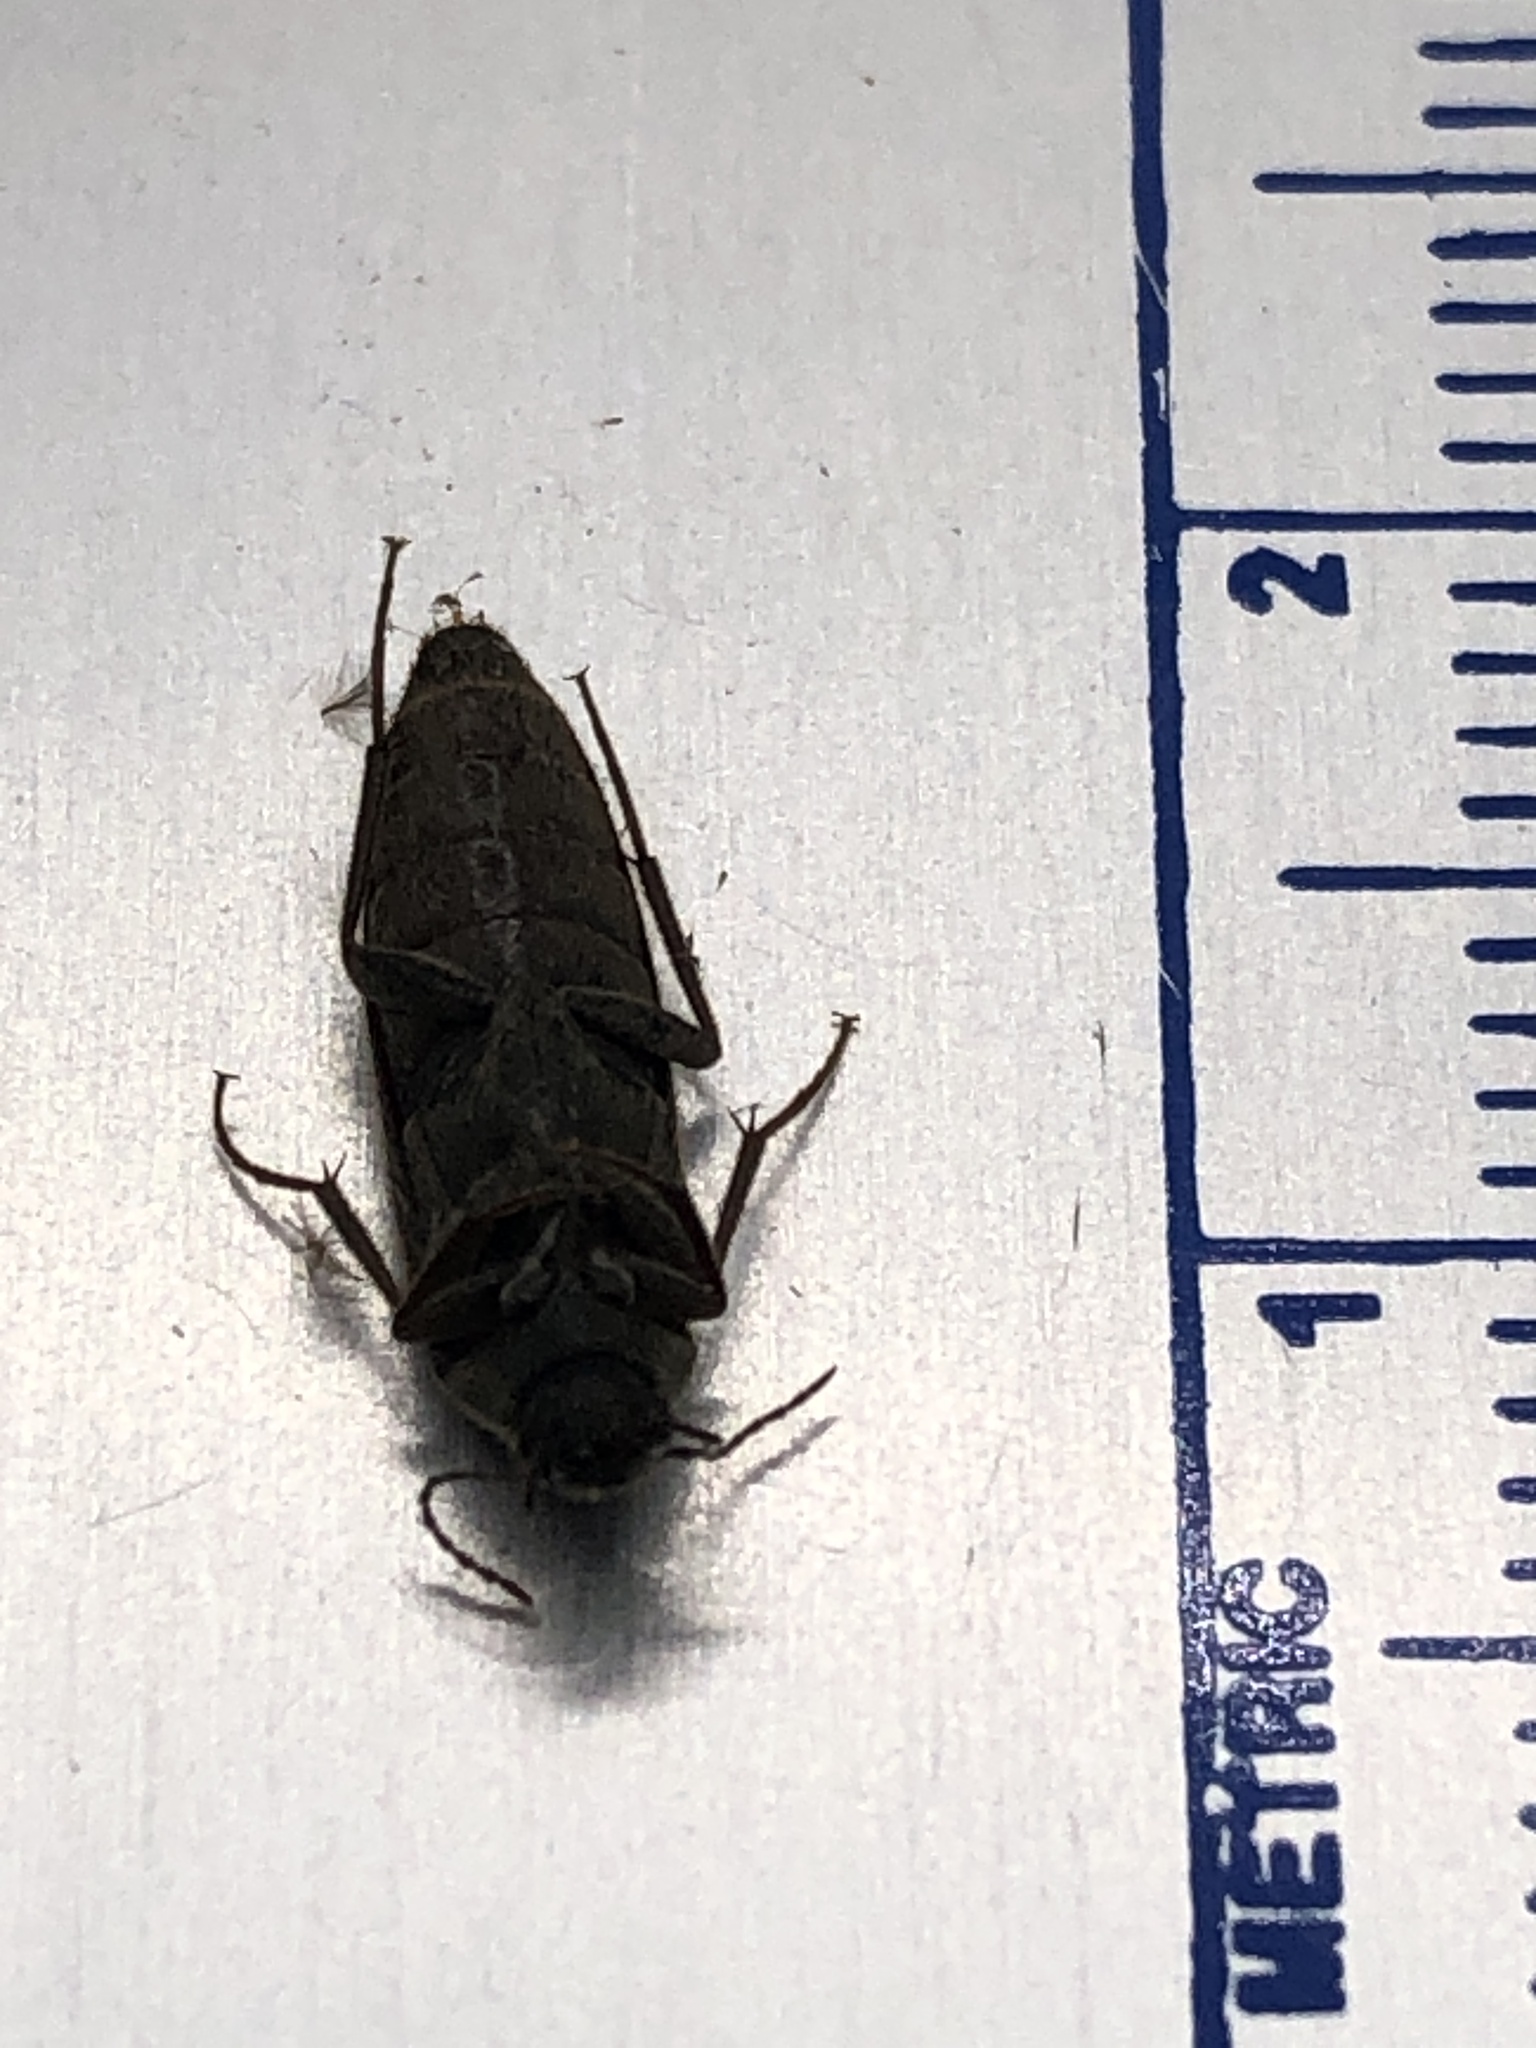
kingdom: Animalia
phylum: Arthropoda
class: Insecta
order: Coleoptera
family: Synchroidae
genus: Synchroa
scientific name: Synchroa punctata
